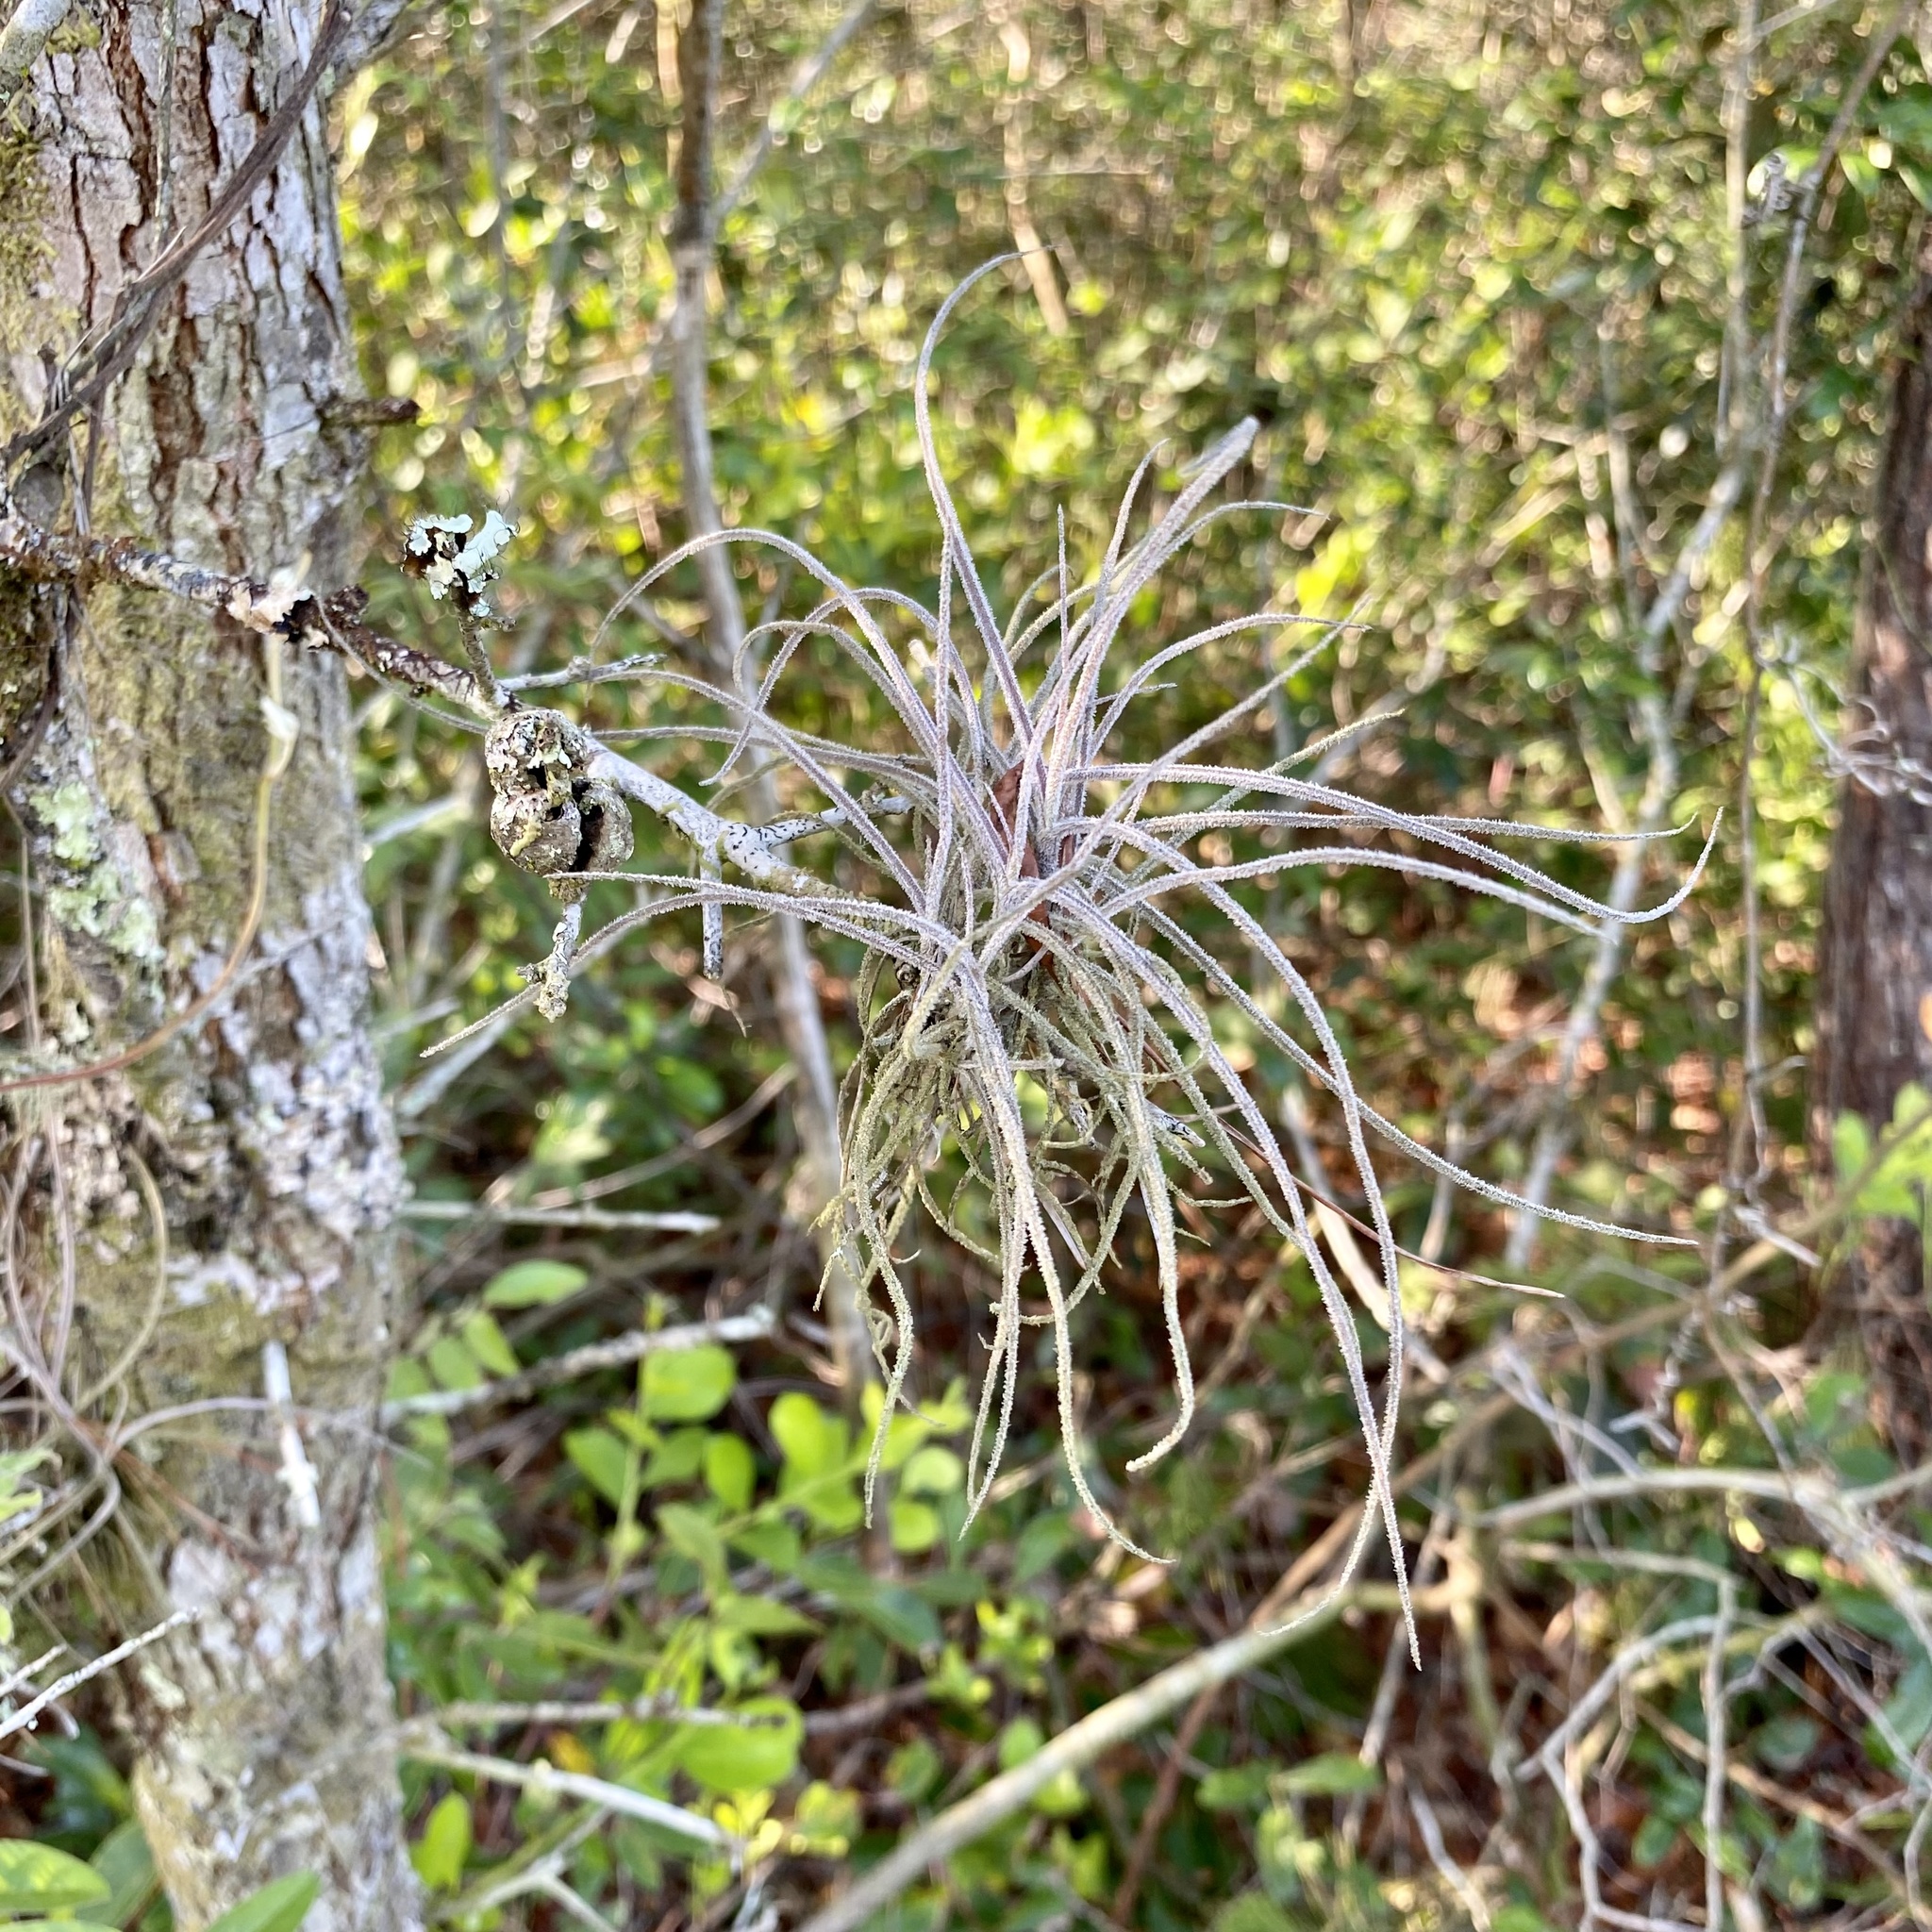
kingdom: Plantae
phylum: Tracheophyta
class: Liliopsida
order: Poales
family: Bromeliaceae
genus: Tillandsia
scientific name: Tillandsia recurvata
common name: Small ballmoss
